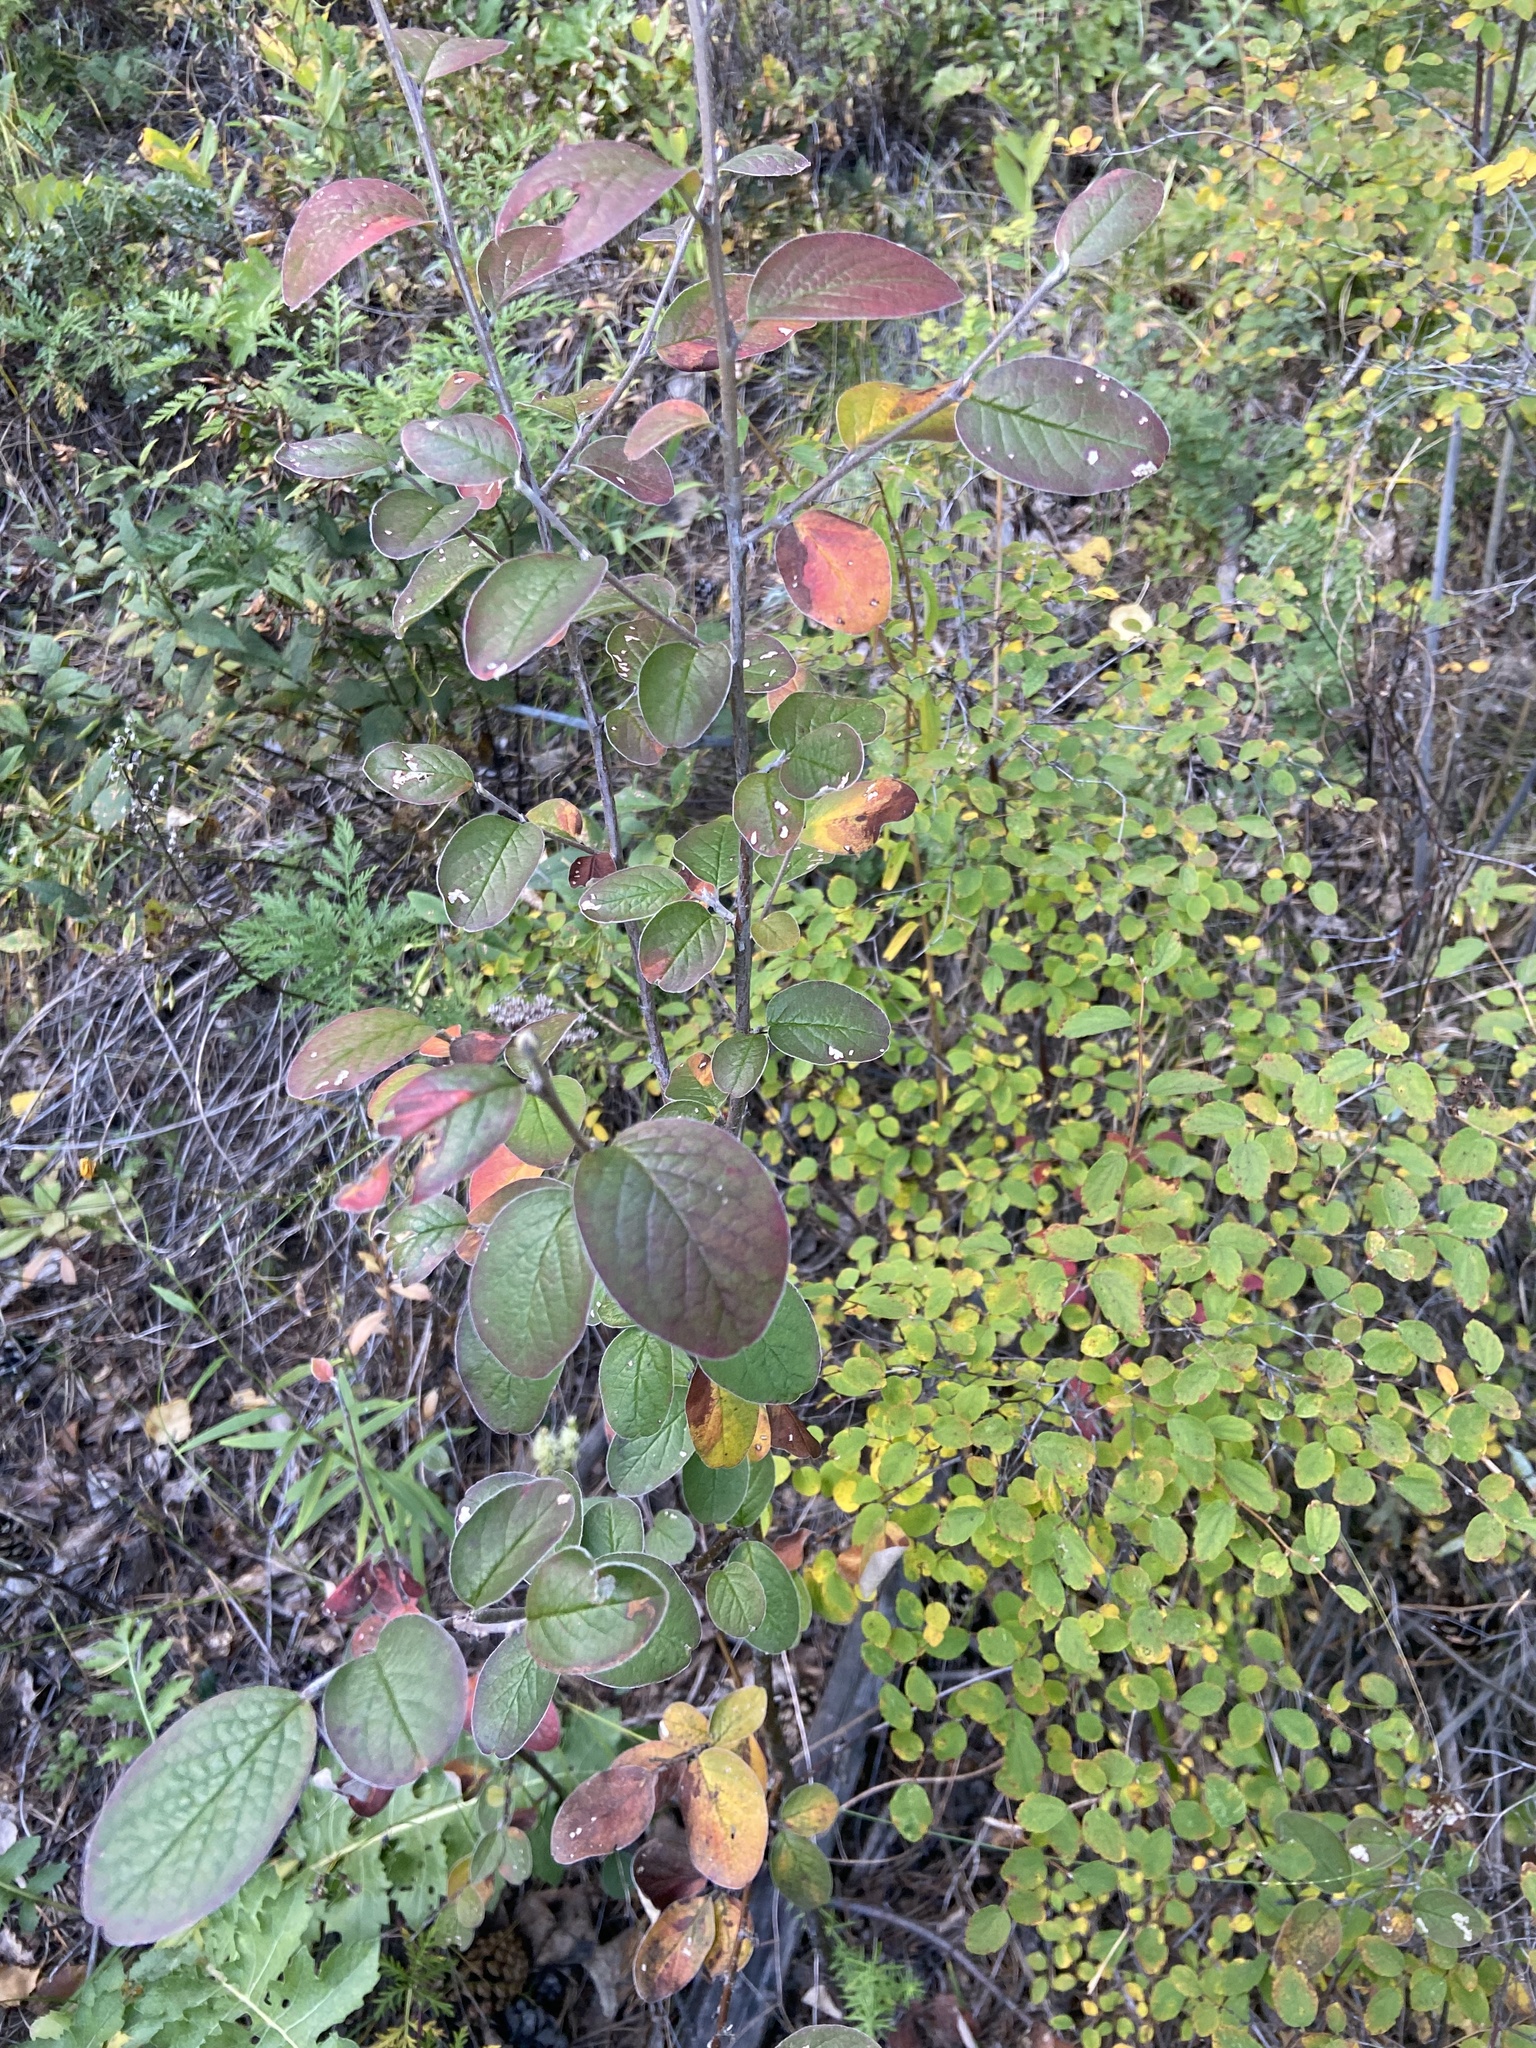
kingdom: Plantae
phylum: Tracheophyta
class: Magnoliopsida
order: Rosales
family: Rosaceae
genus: Cotoneaster
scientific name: Cotoneaster melanocarpus
